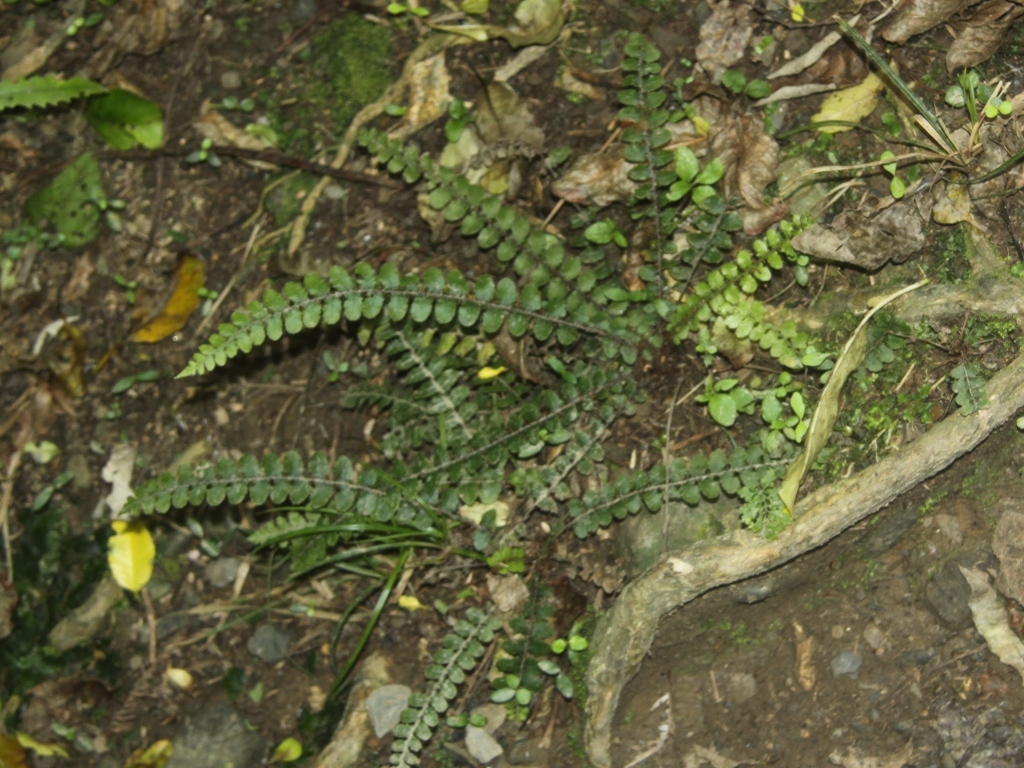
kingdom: Plantae
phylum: Tracheophyta
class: Polypodiopsida
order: Polypodiales
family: Blechnaceae
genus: Cranfillia
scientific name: Cranfillia fluviatilis
